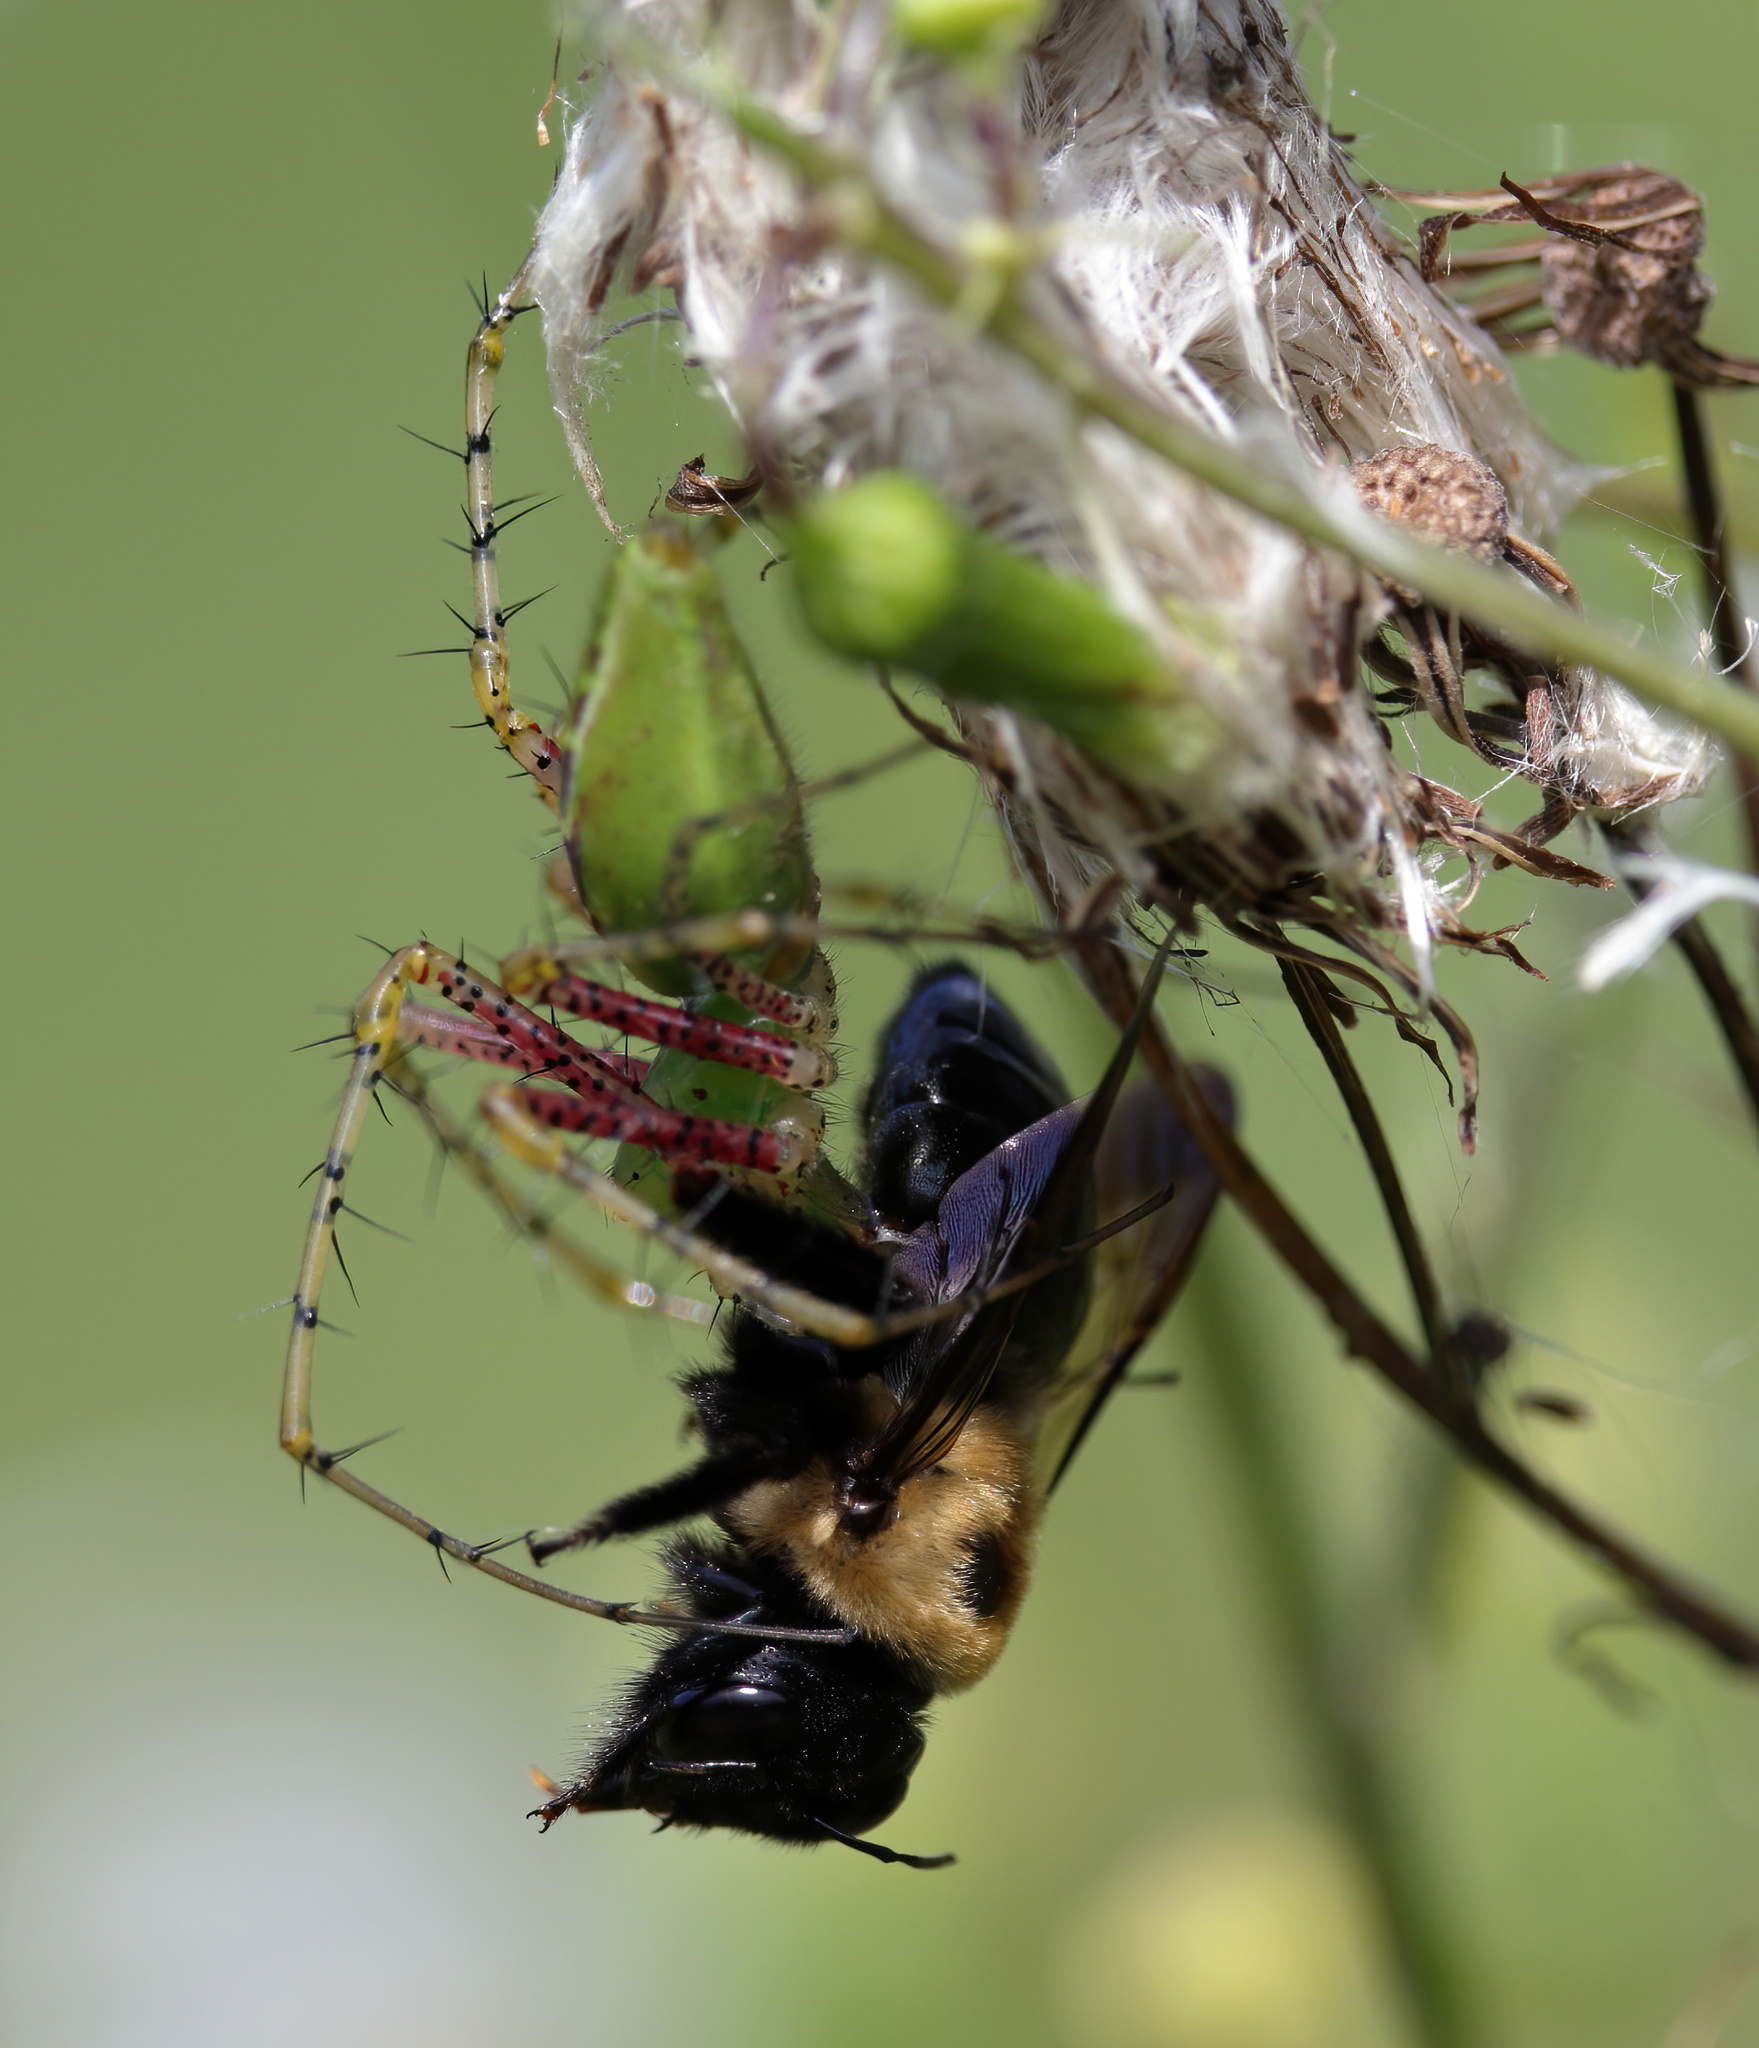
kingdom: Animalia
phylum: Arthropoda
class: Insecta
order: Hymenoptera
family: Apidae
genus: Xylocopa
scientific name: Xylocopa virginica
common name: Carpenter bee
